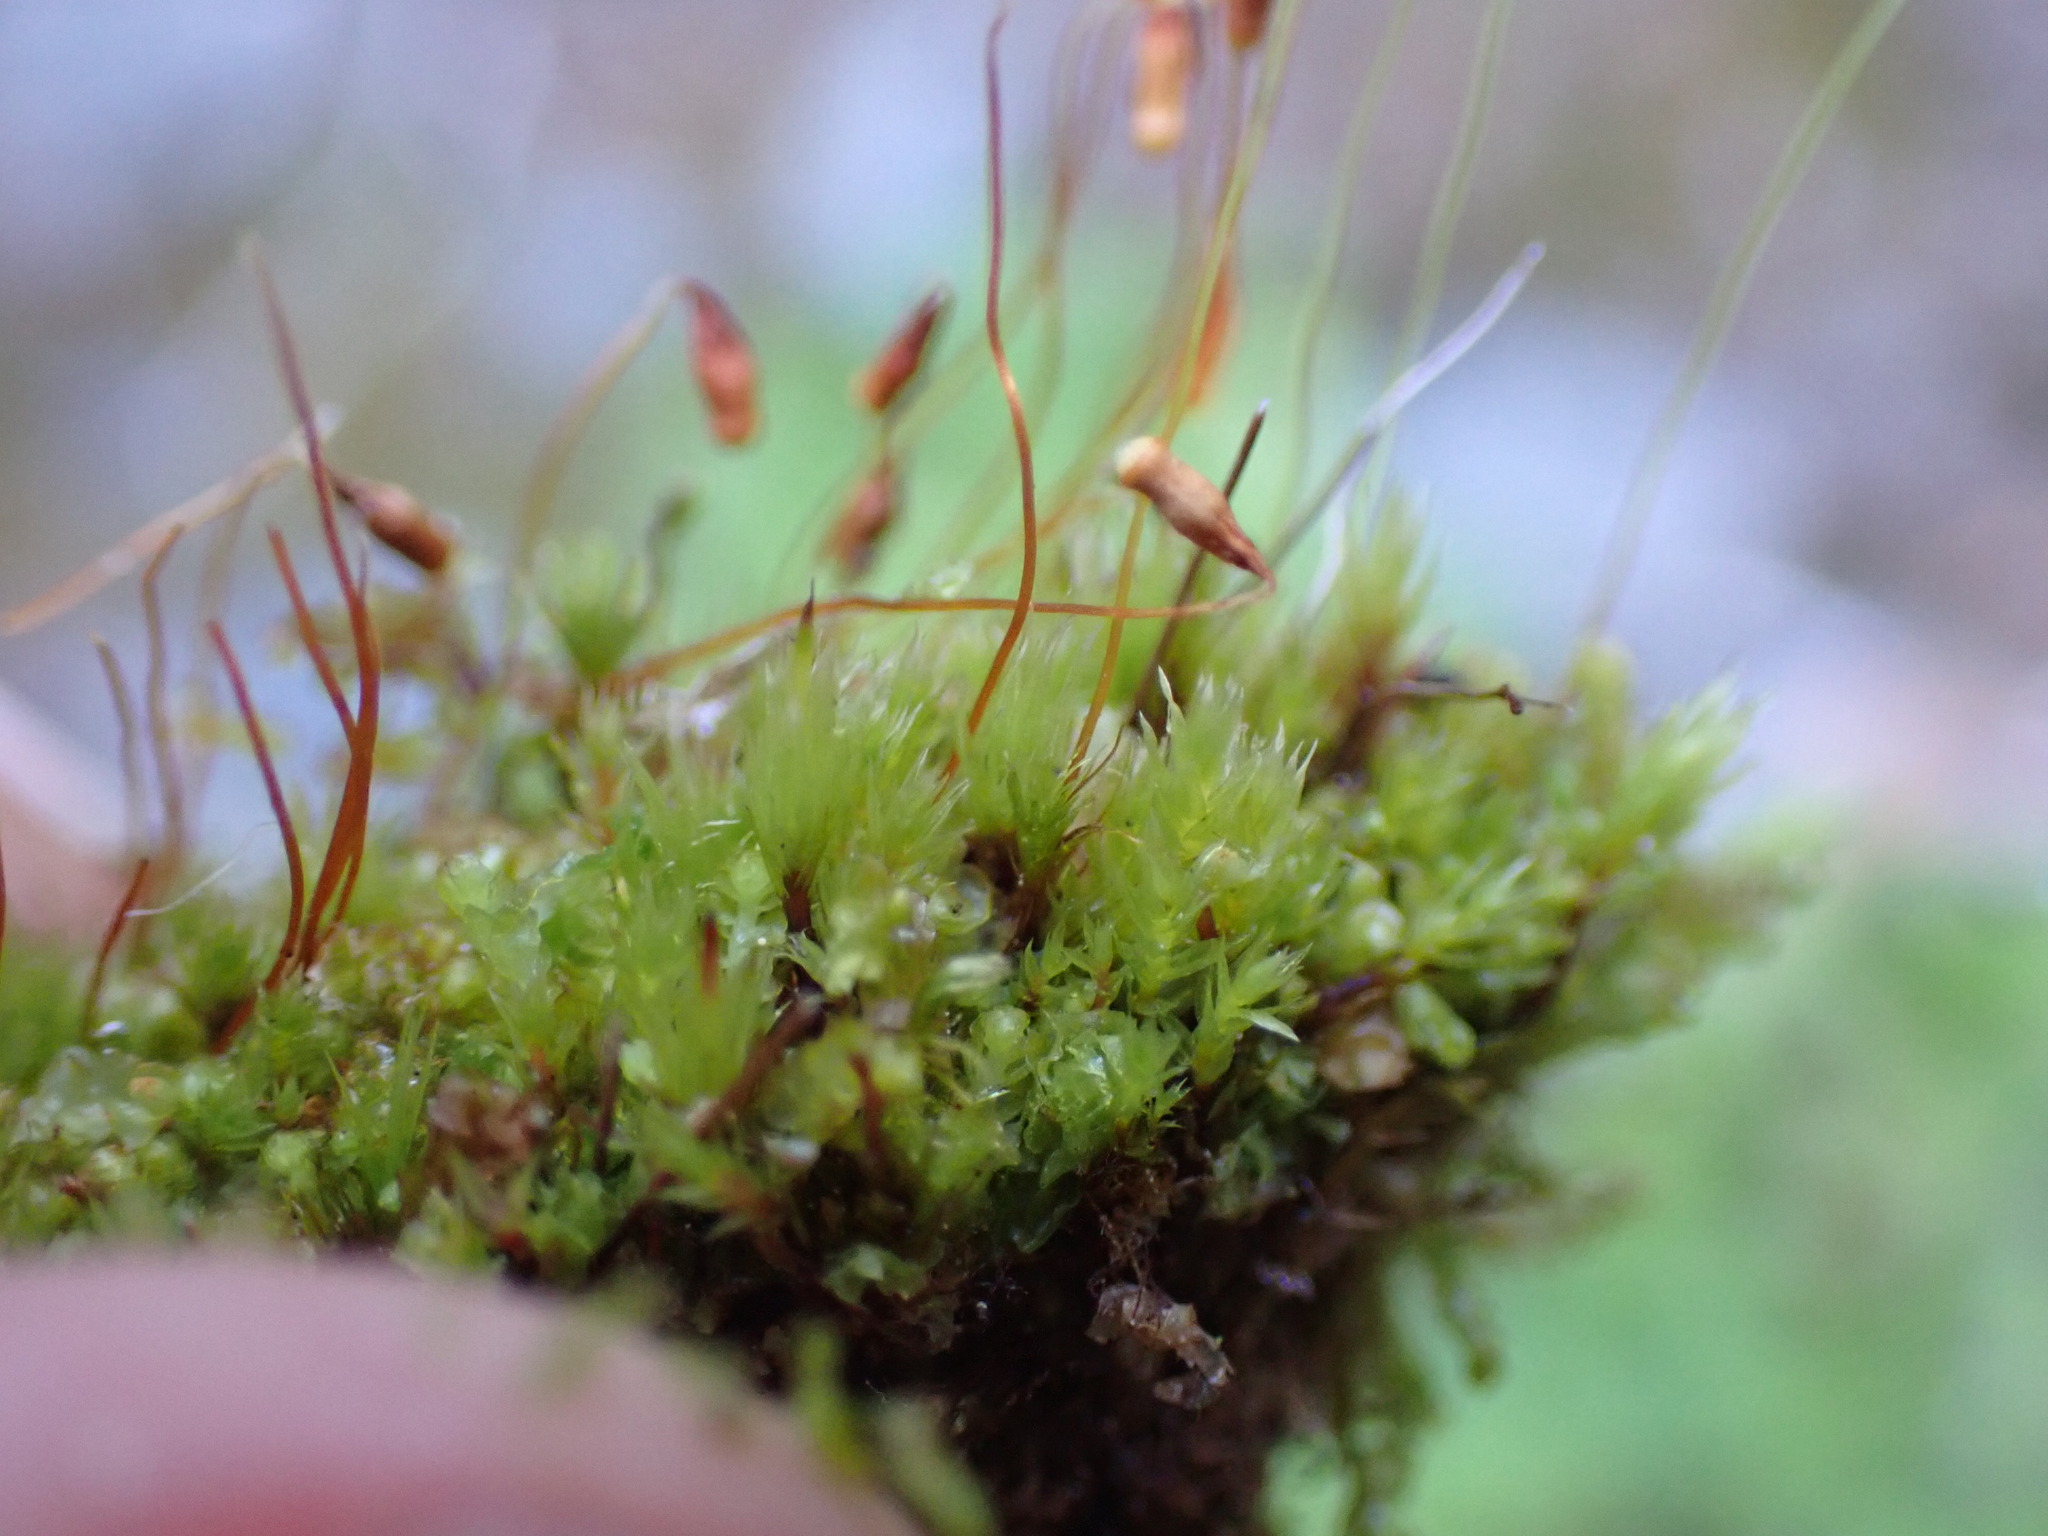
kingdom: Plantae
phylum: Bryophyta
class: Bryopsida
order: Bryales
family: Bryaceae
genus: Rosulabryum
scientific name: Rosulabryum capillare
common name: Capillary thread-moss
